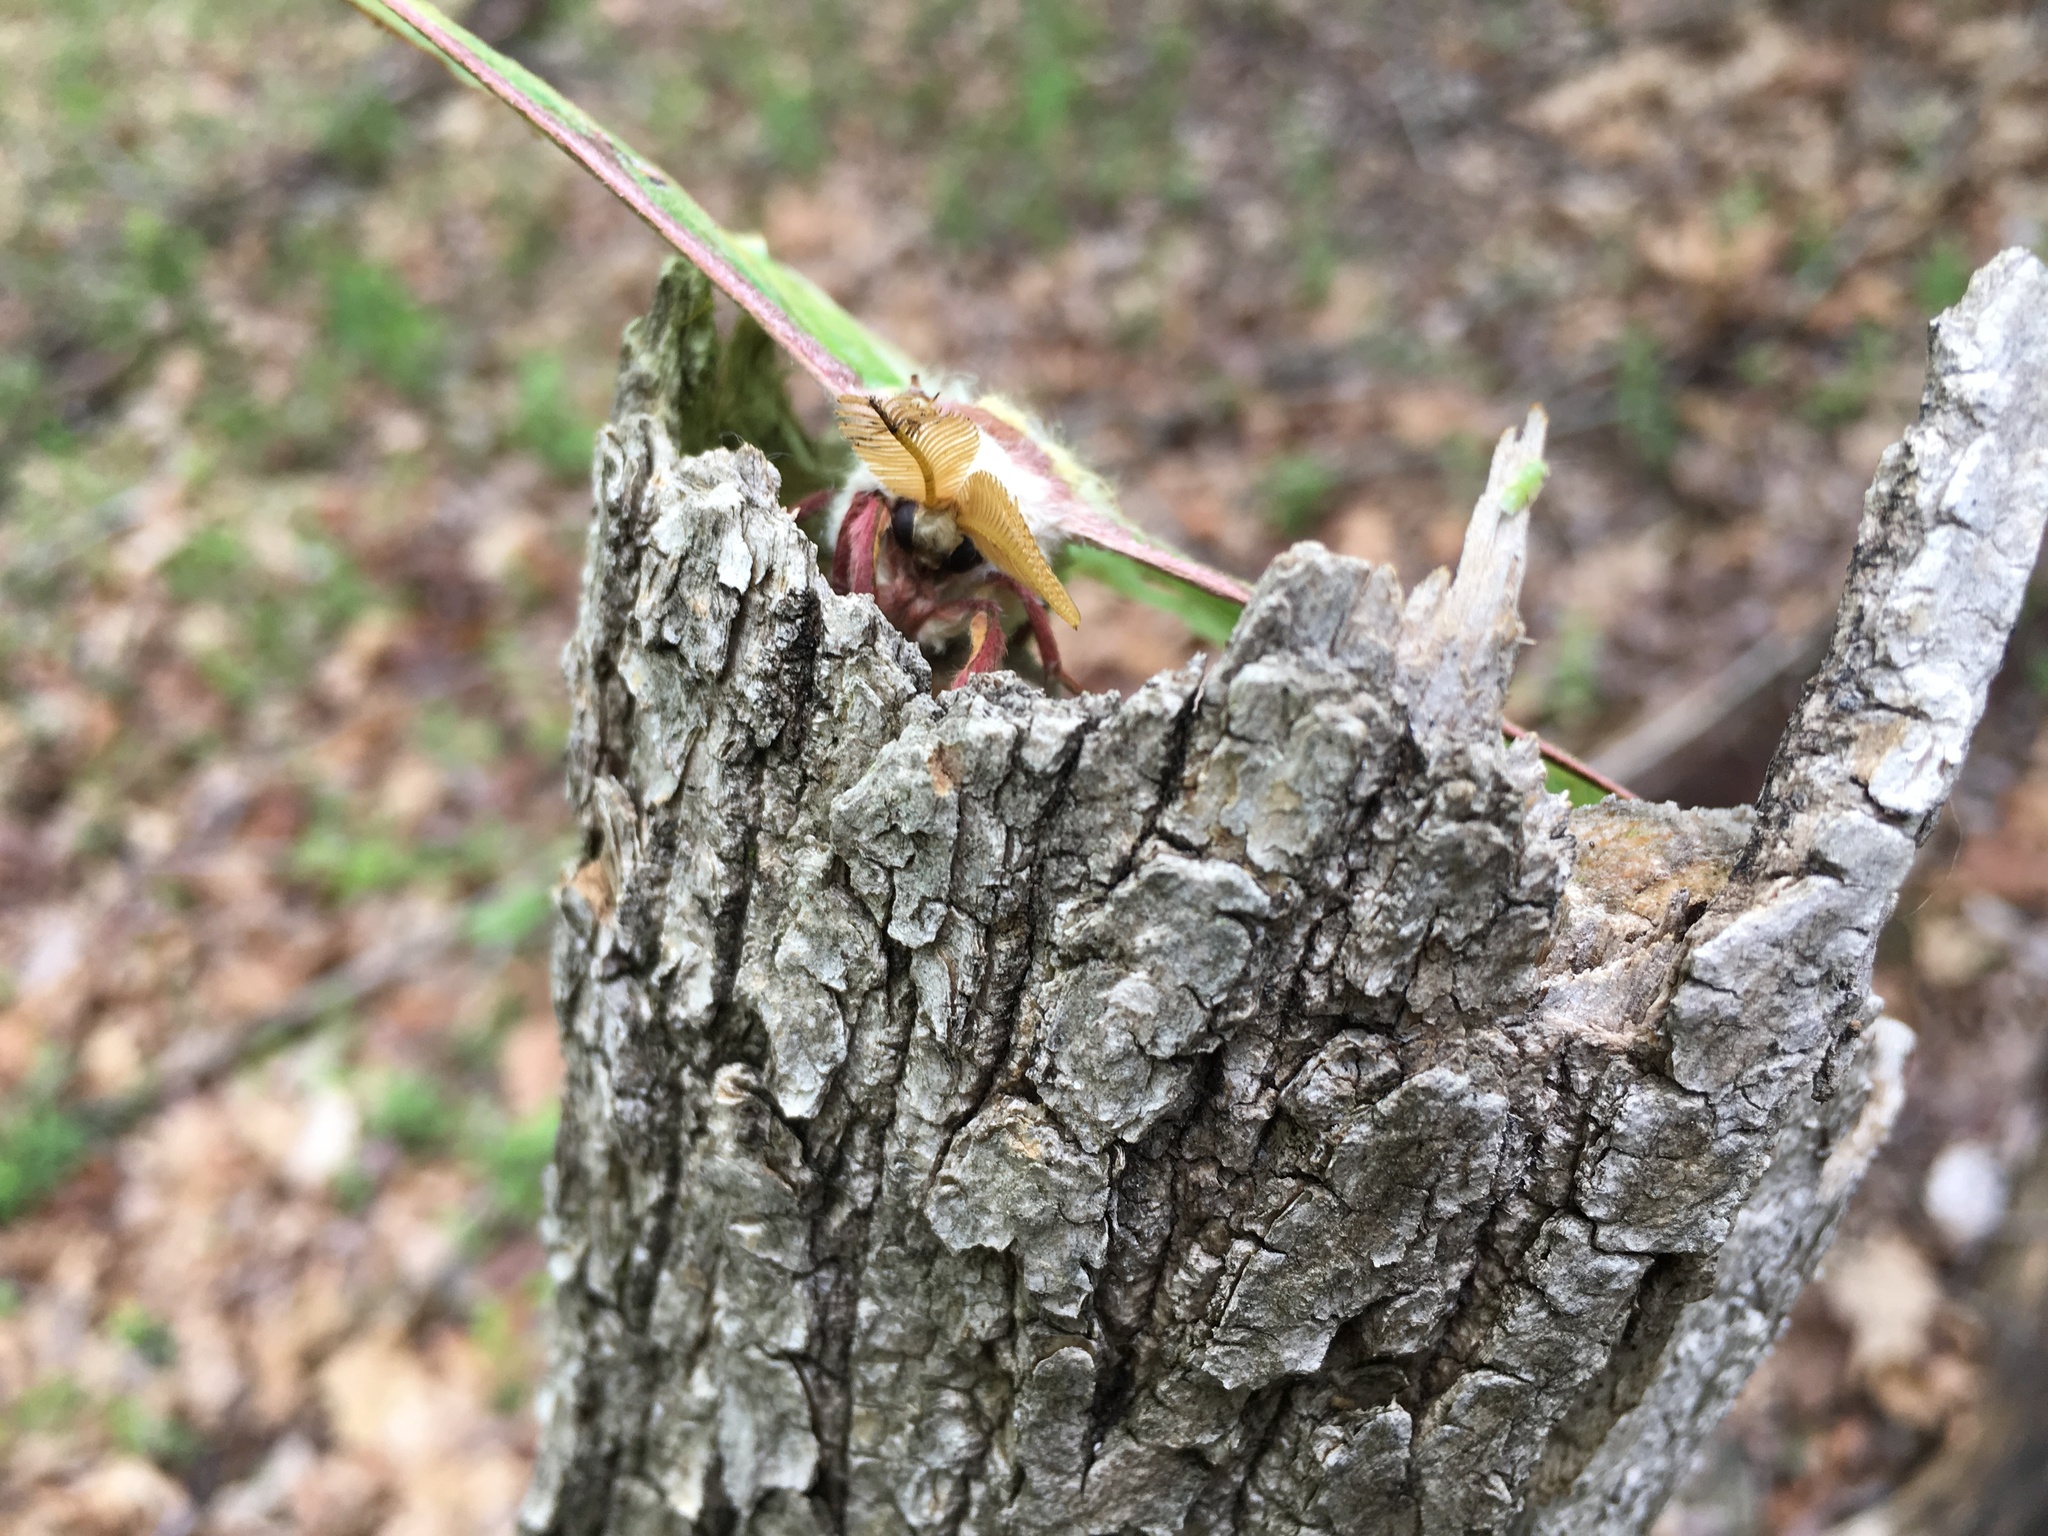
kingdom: Animalia
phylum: Arthropoda
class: Insecta
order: Lepidoptera
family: Saturniidae
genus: Actias
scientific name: Actias luna
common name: Luna moth
